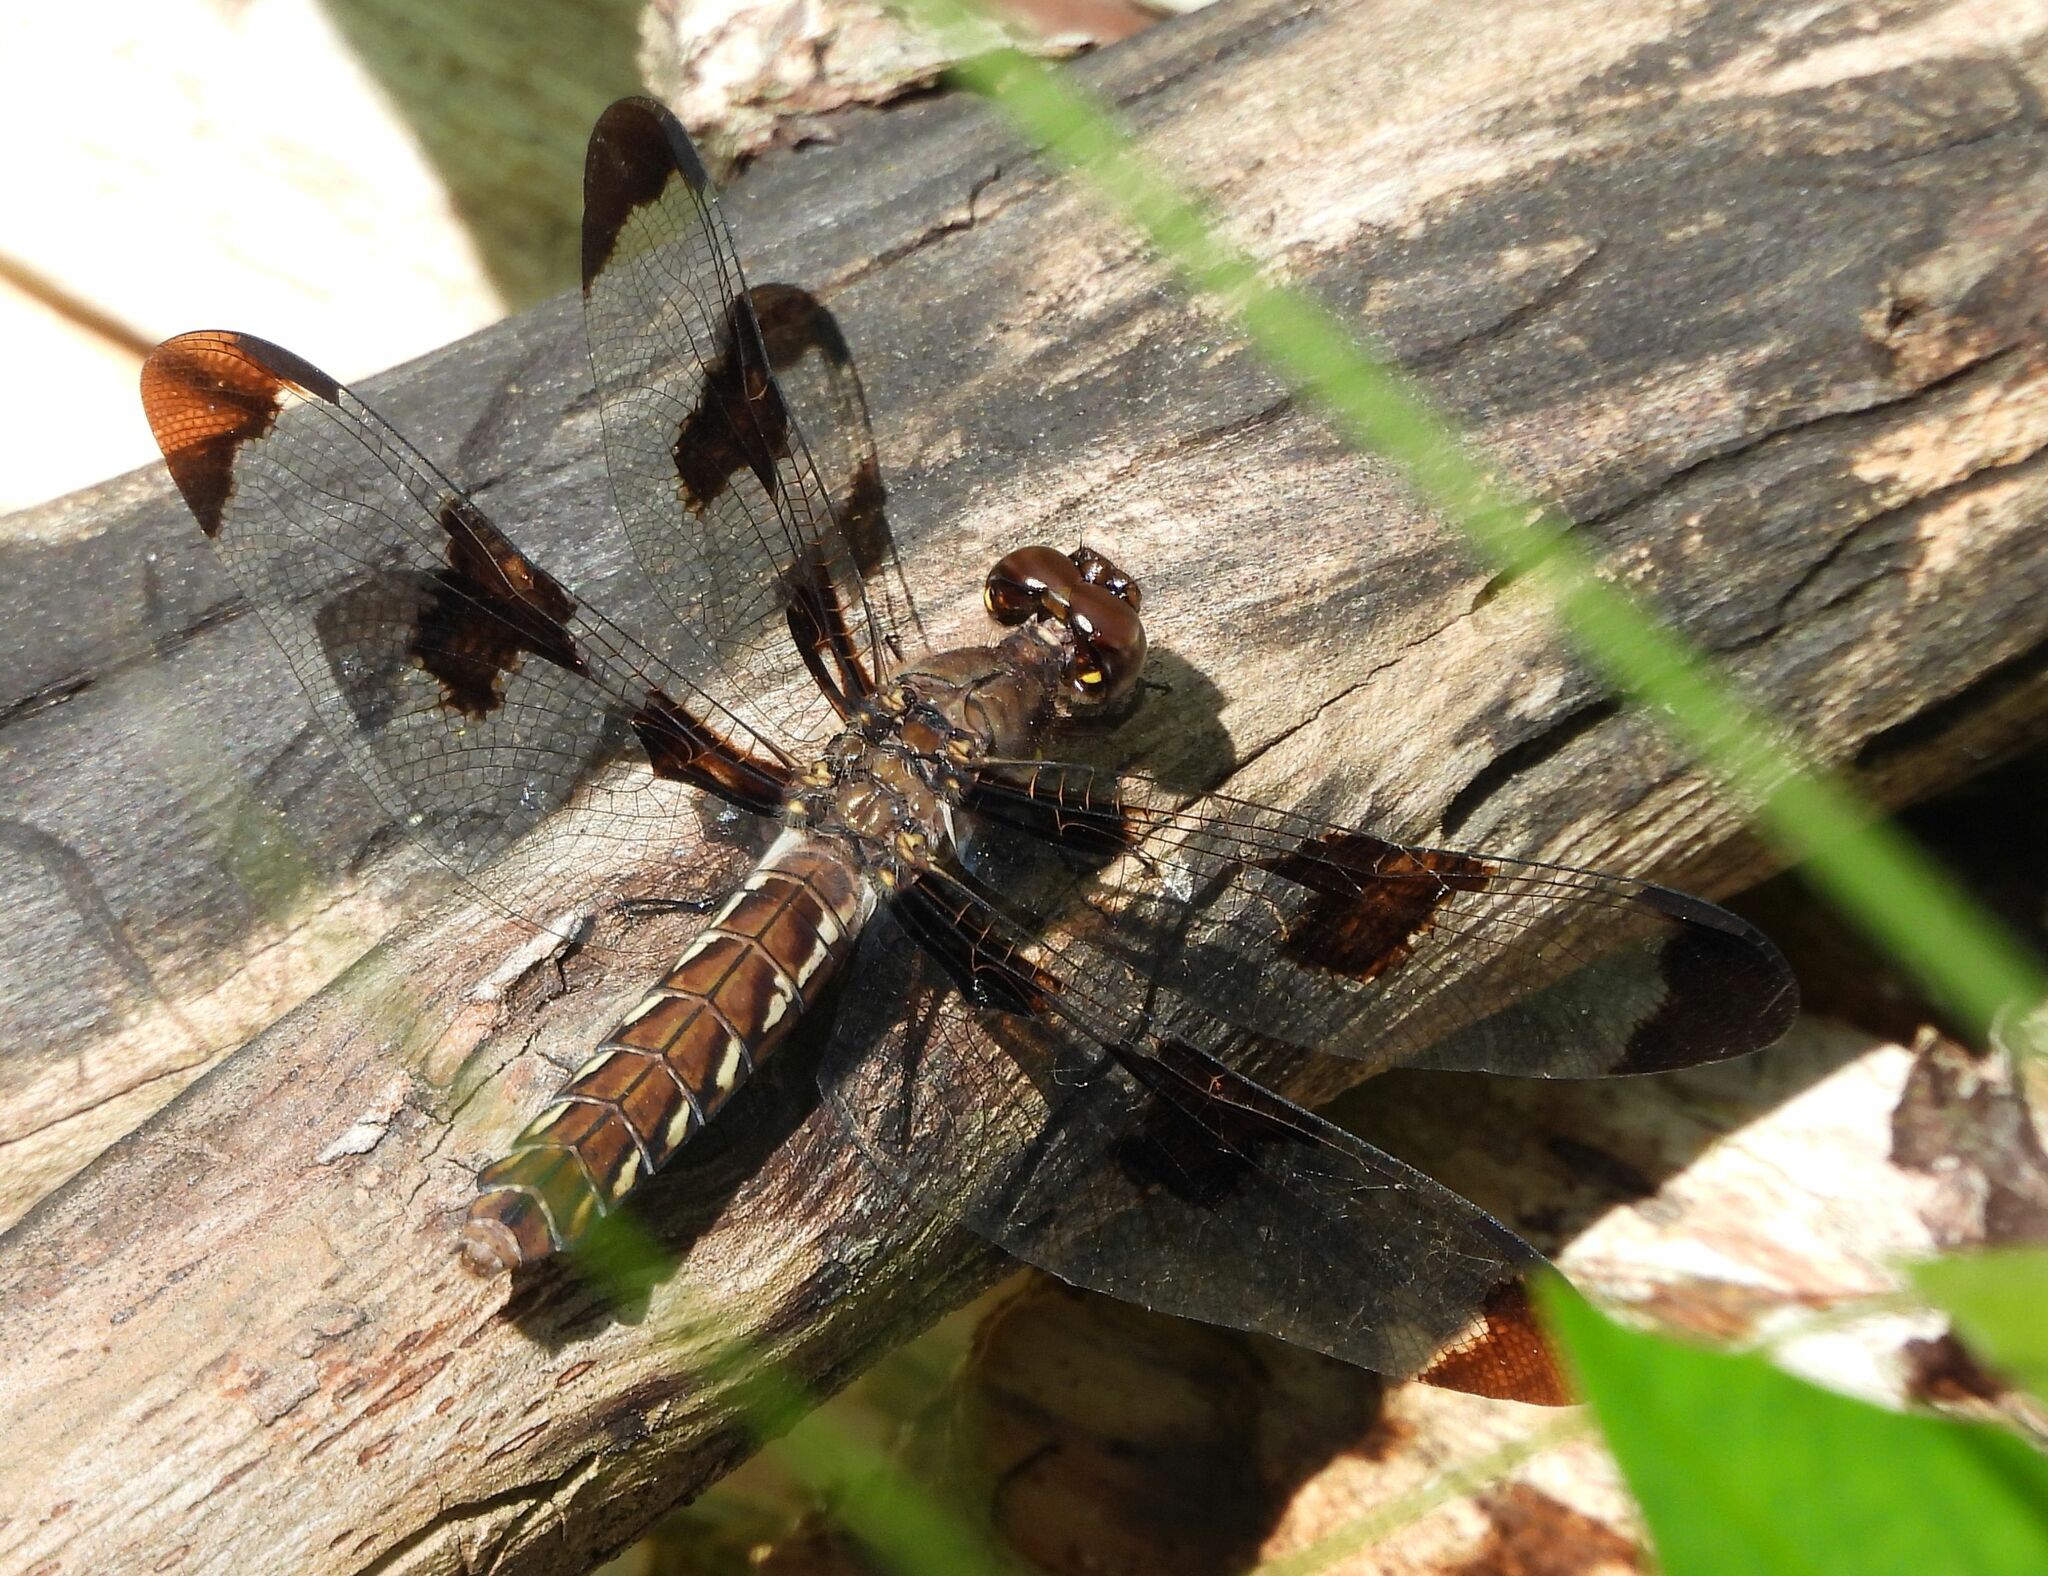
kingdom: Animalia
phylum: Arthropoda
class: Insecta
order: Odonata
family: Libellulidae
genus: Plathemis
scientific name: Plathemis lydia
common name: Common whitetail
